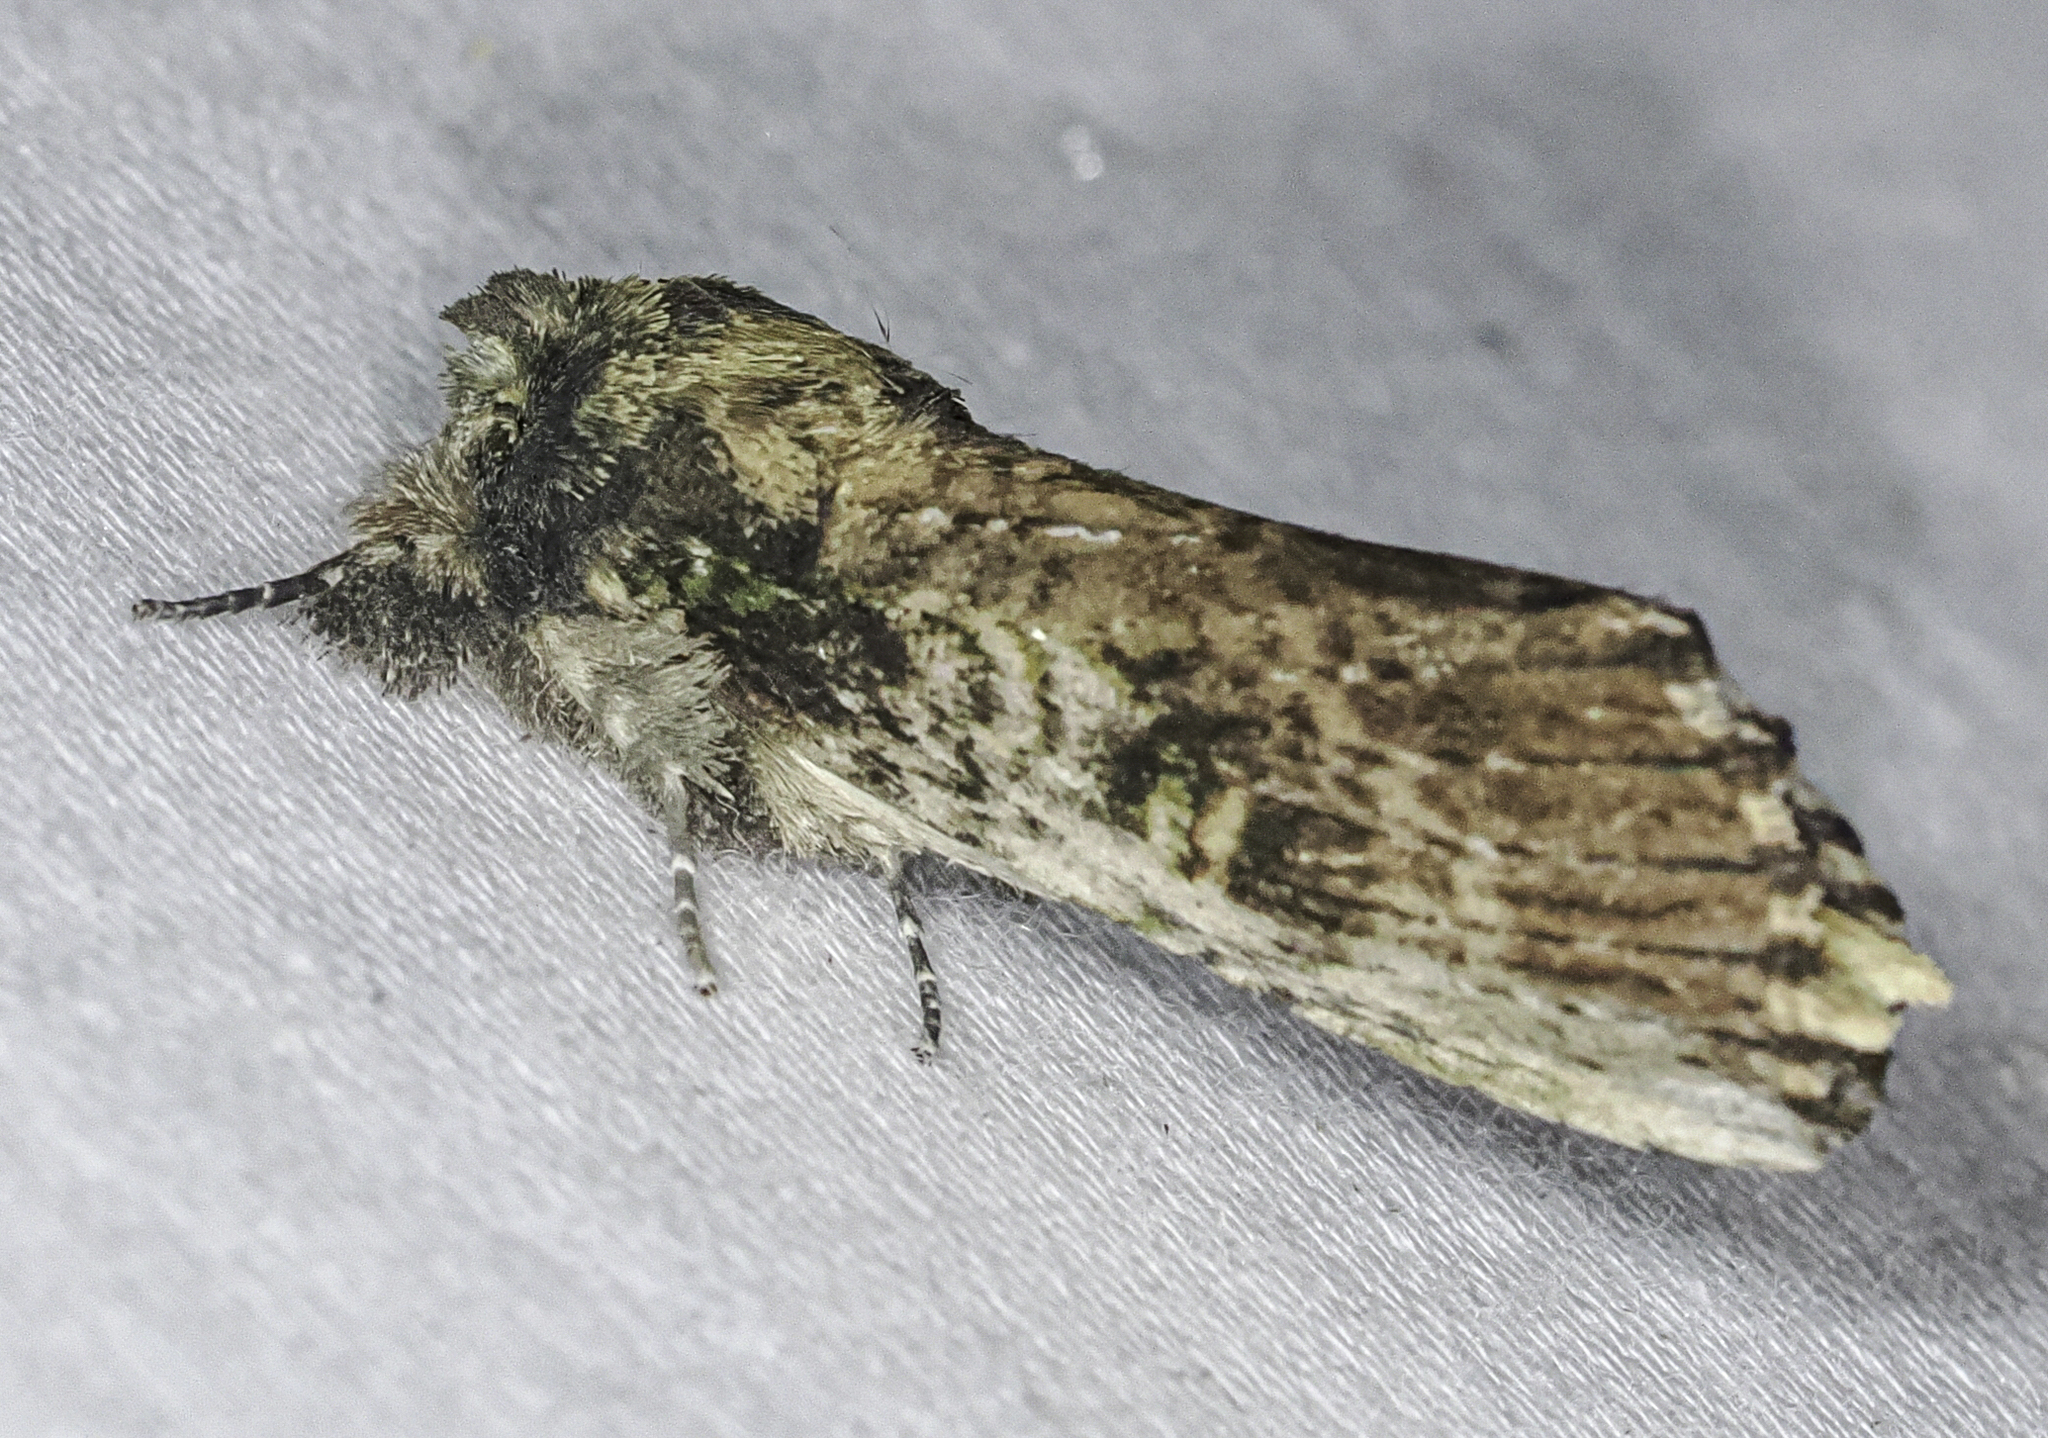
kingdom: Animalia
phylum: Arthropoda
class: Insecta
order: Lepidoptera
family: Notodontidae
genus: Schizura
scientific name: Schizura ipomaeae
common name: Morning-glory prominent
